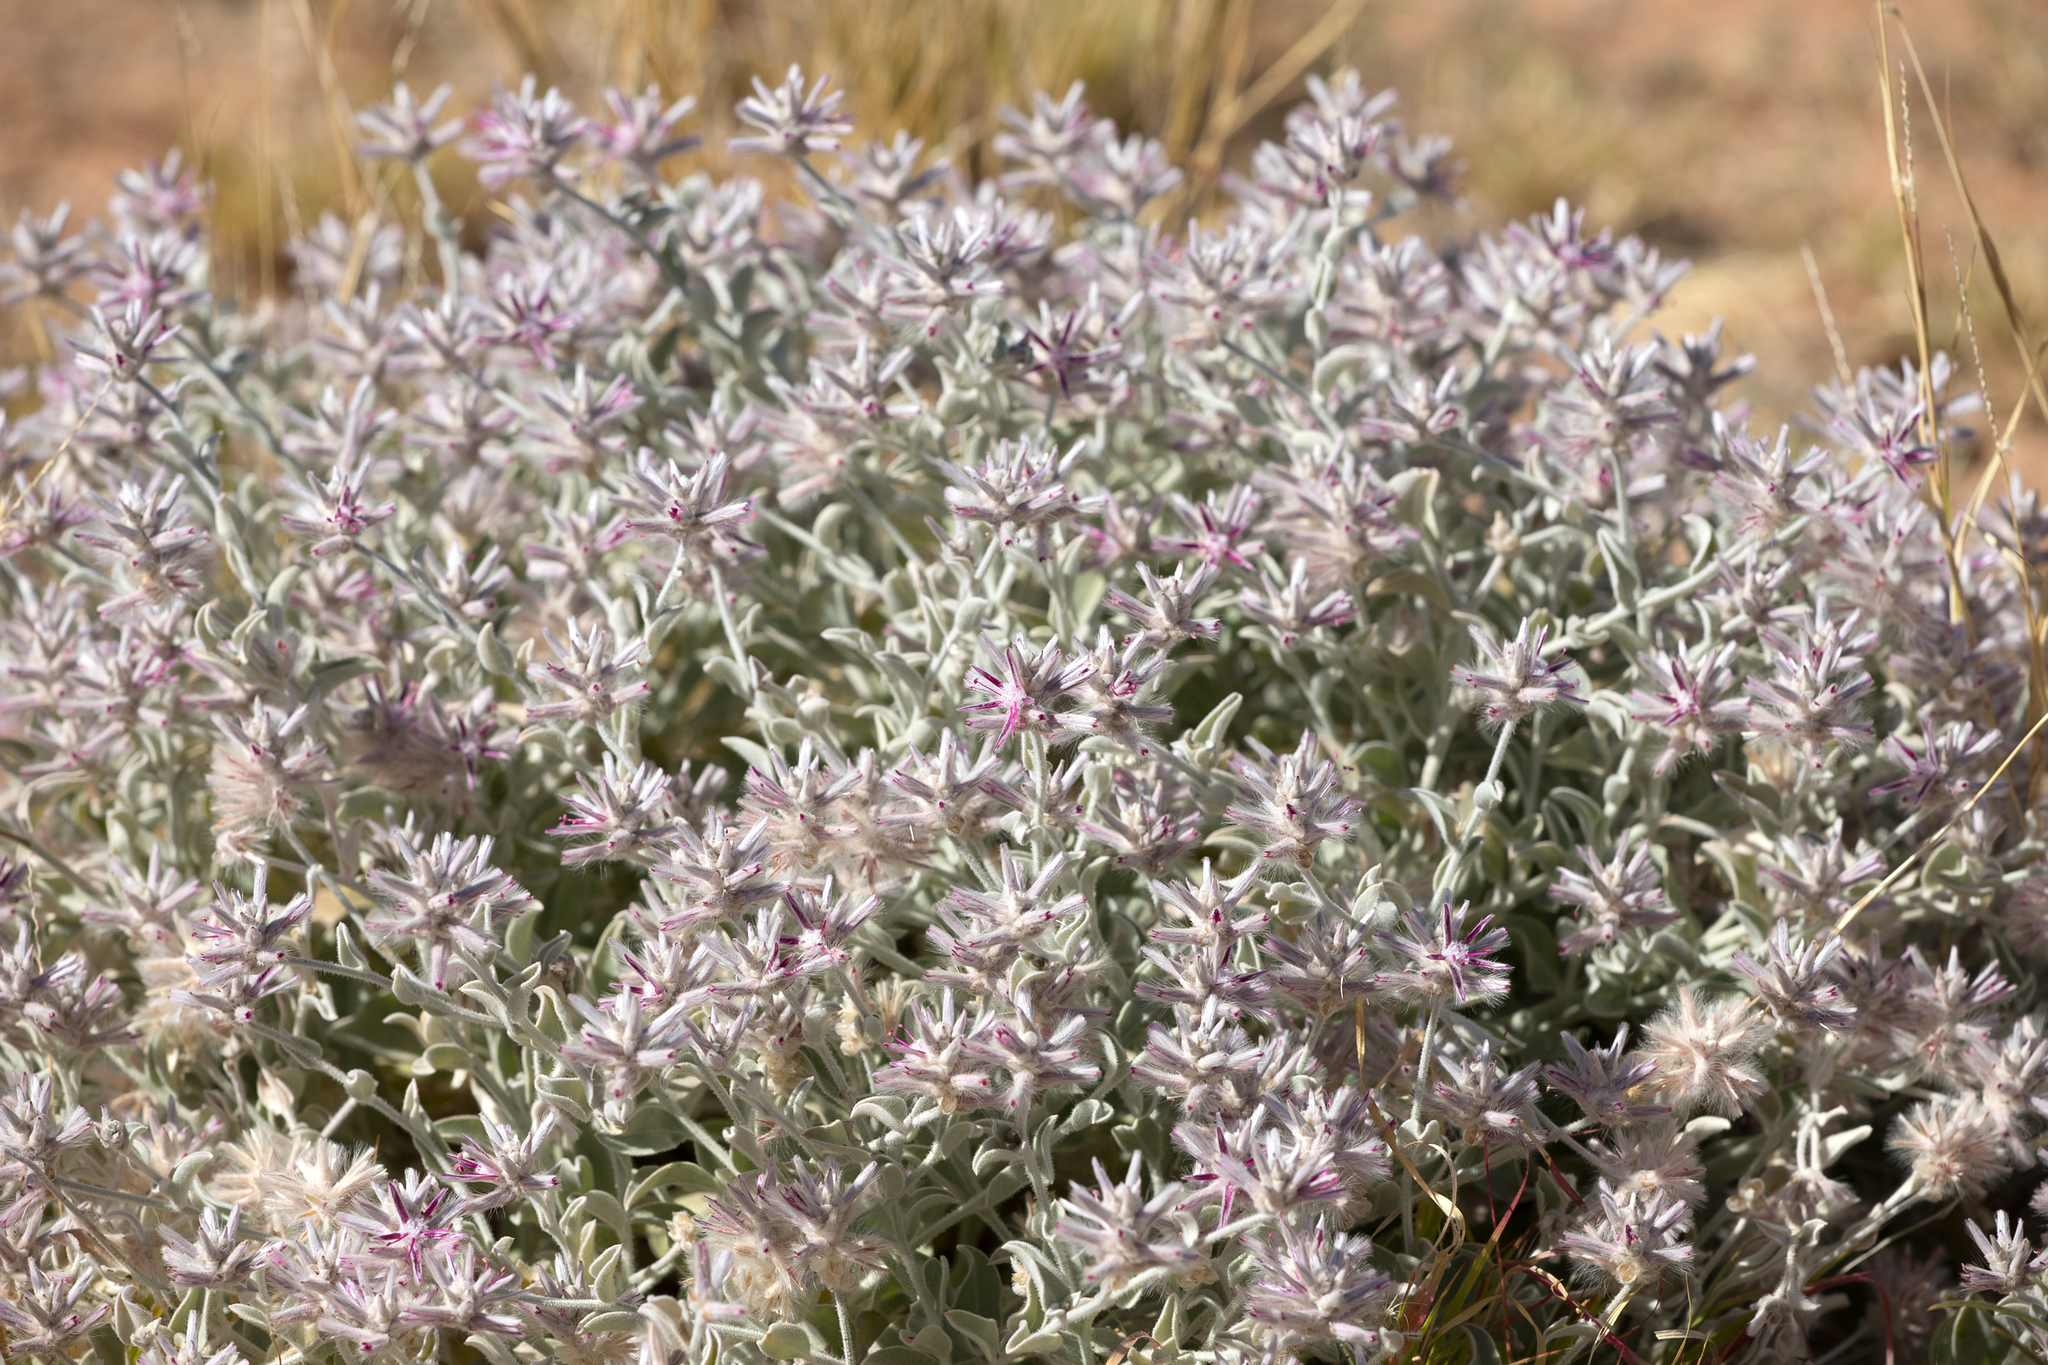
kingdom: Plantae
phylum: Tracheophyta
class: Magnoliopsida
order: Caryophyllales
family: Amaranthaceae
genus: Ptilotus
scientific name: Ptilotus sessilifolius
